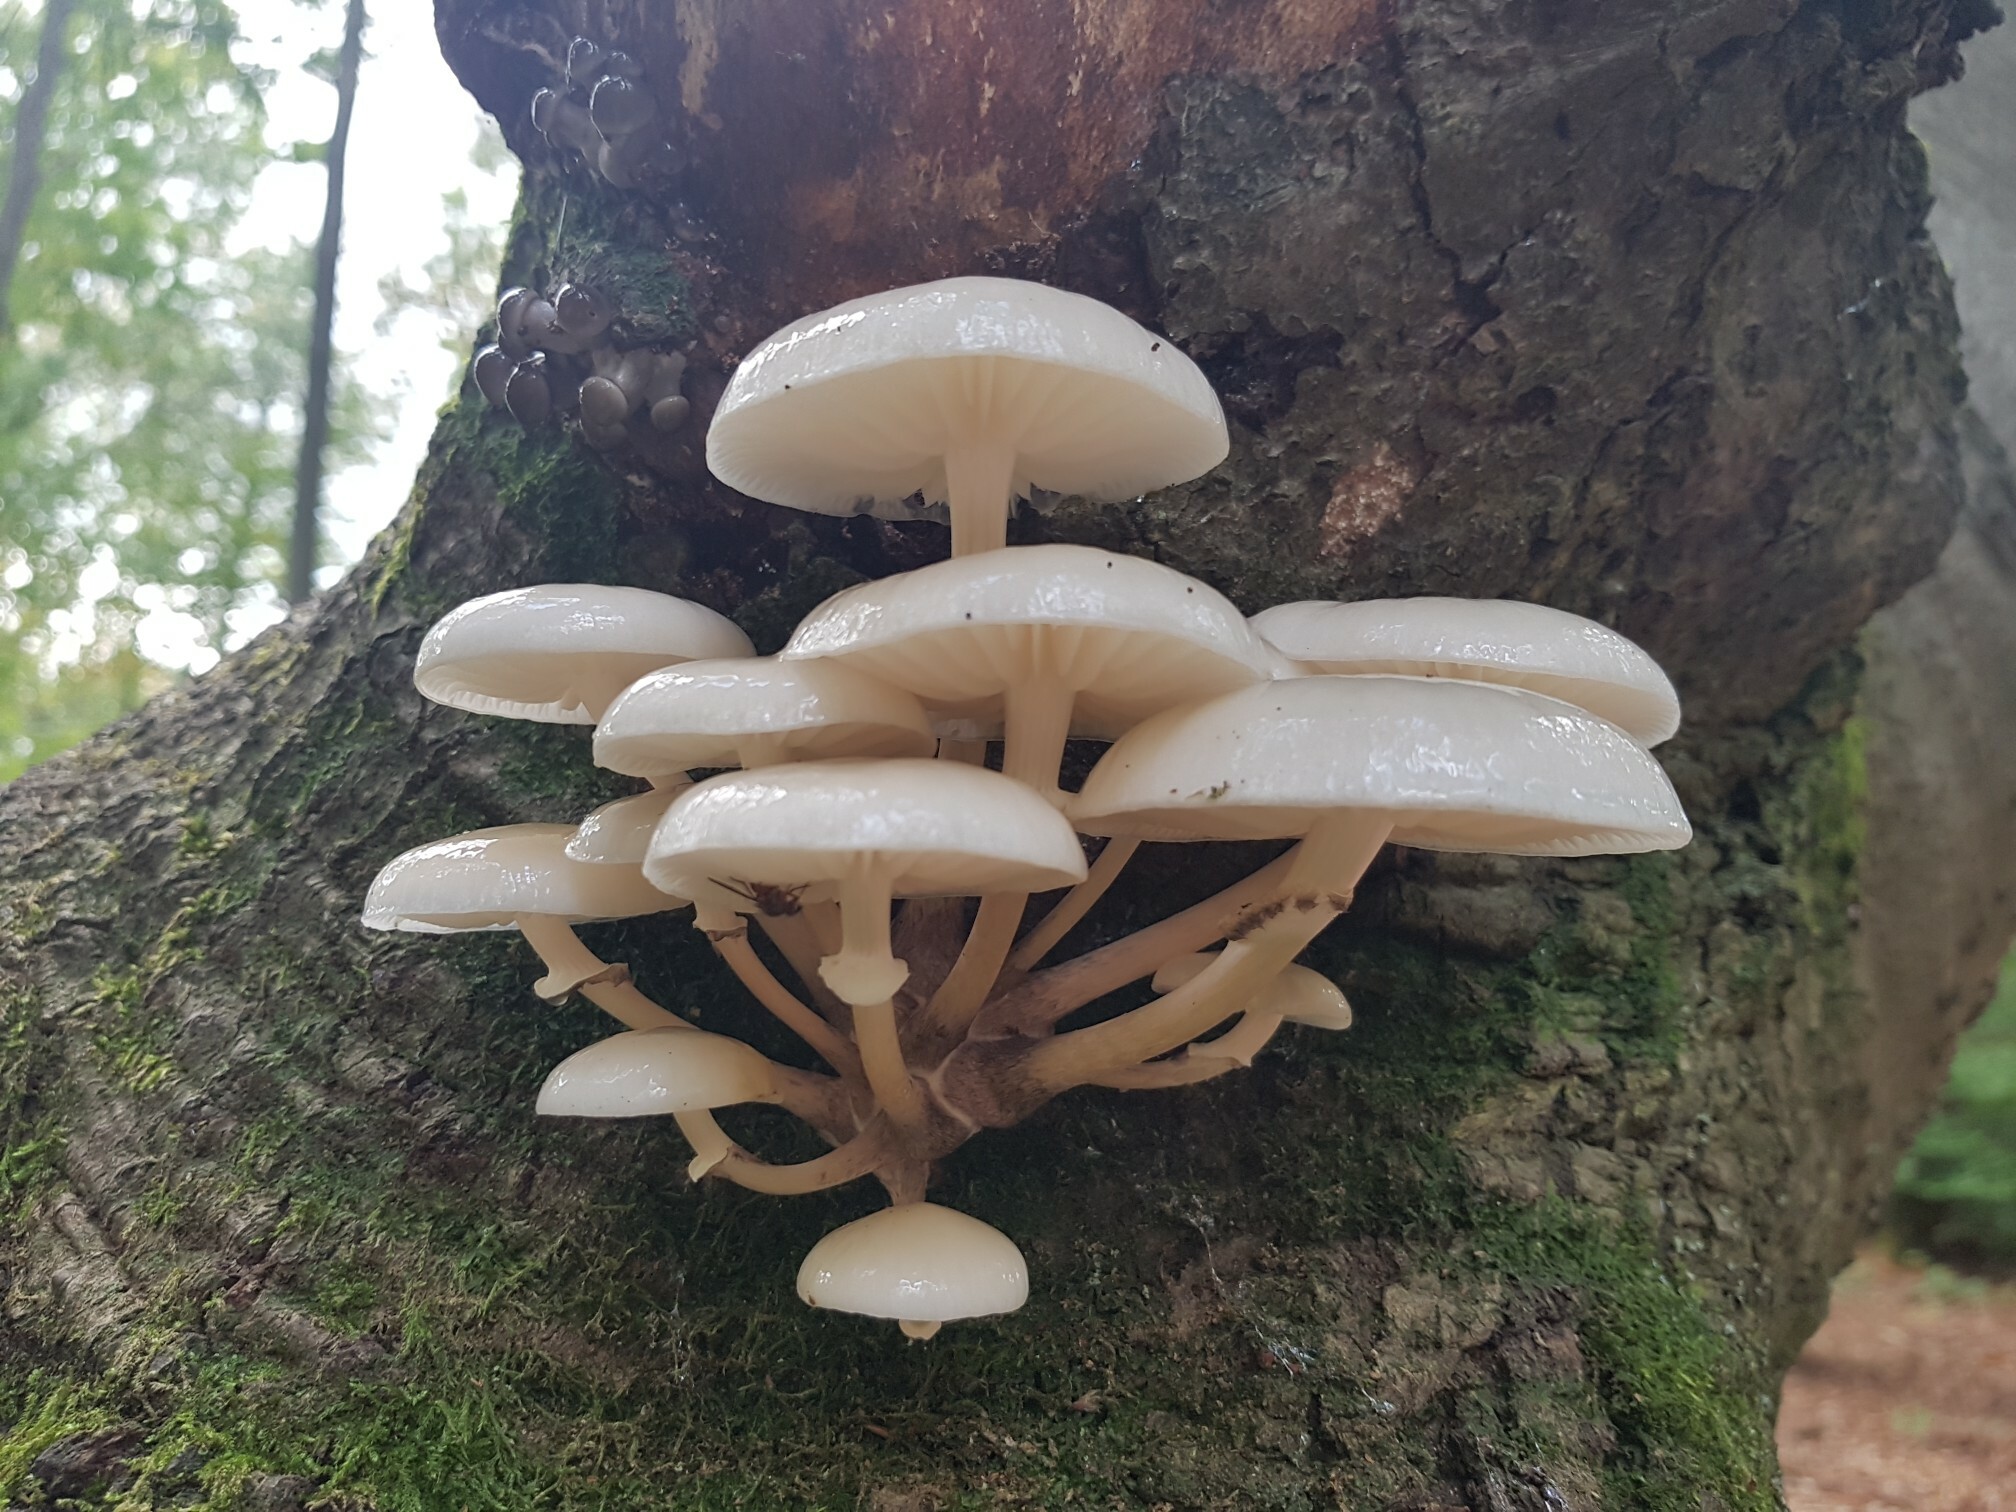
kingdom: Fungi
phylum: Basidiomycota
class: Agaricomycetes
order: Agaricales
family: Physalacriaceae
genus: Mucidula
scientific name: Mucidula mucida
